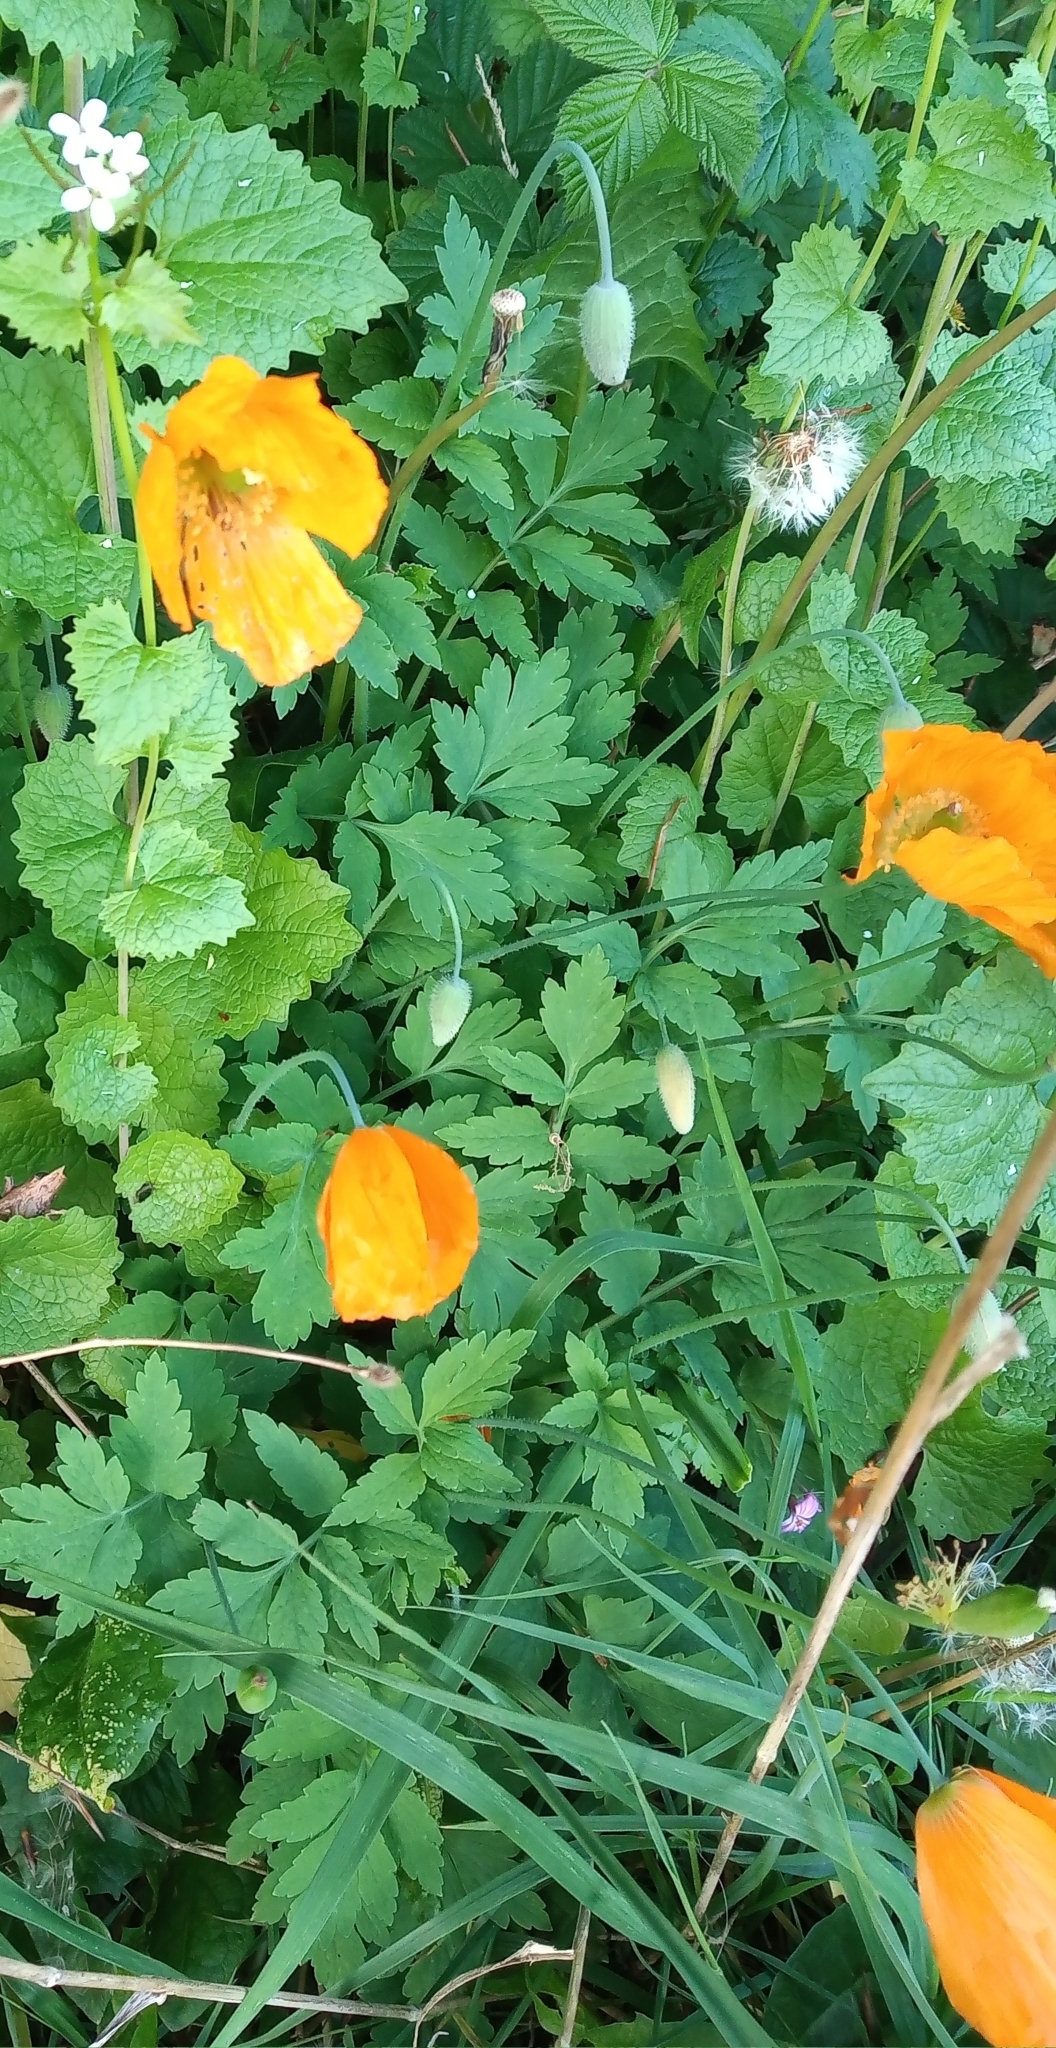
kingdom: Plantae
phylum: Tracheophyta
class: Magnoliopsida
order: Ranunculales
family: Papaveraceae
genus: Papaver
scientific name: Papaver cambricum
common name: Poppy
